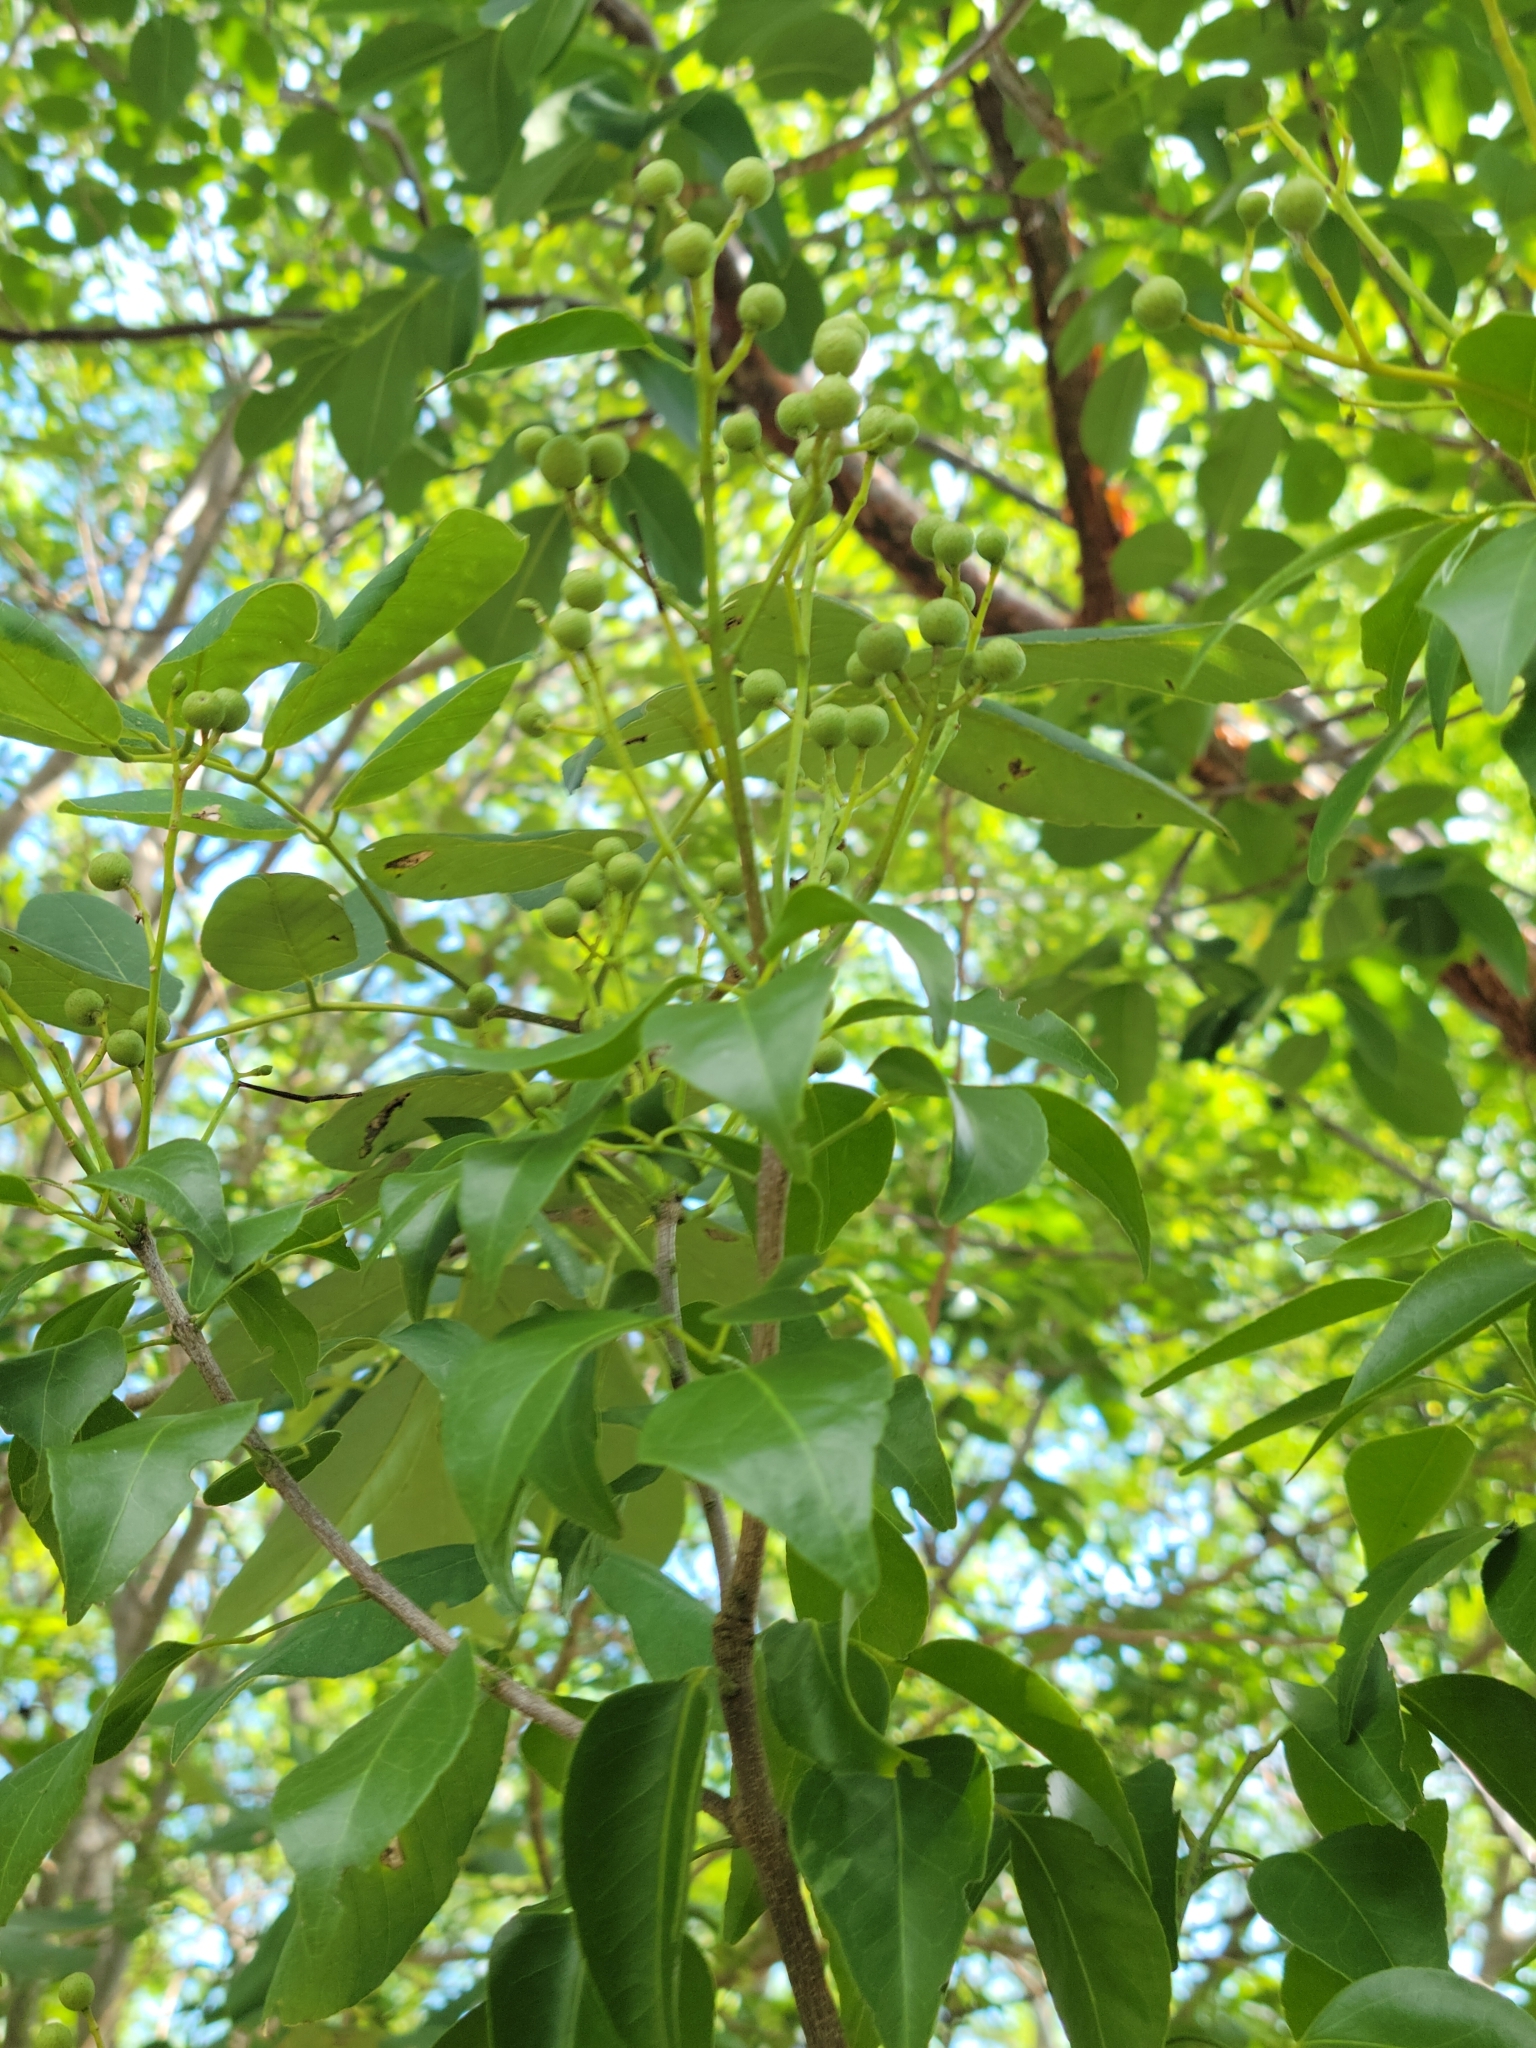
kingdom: Plantae
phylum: Tracheophyta
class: Magnoliopsida
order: Sapindales
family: Rutaceae
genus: Amyris
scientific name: Amyris elemifera
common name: Sea amyris
